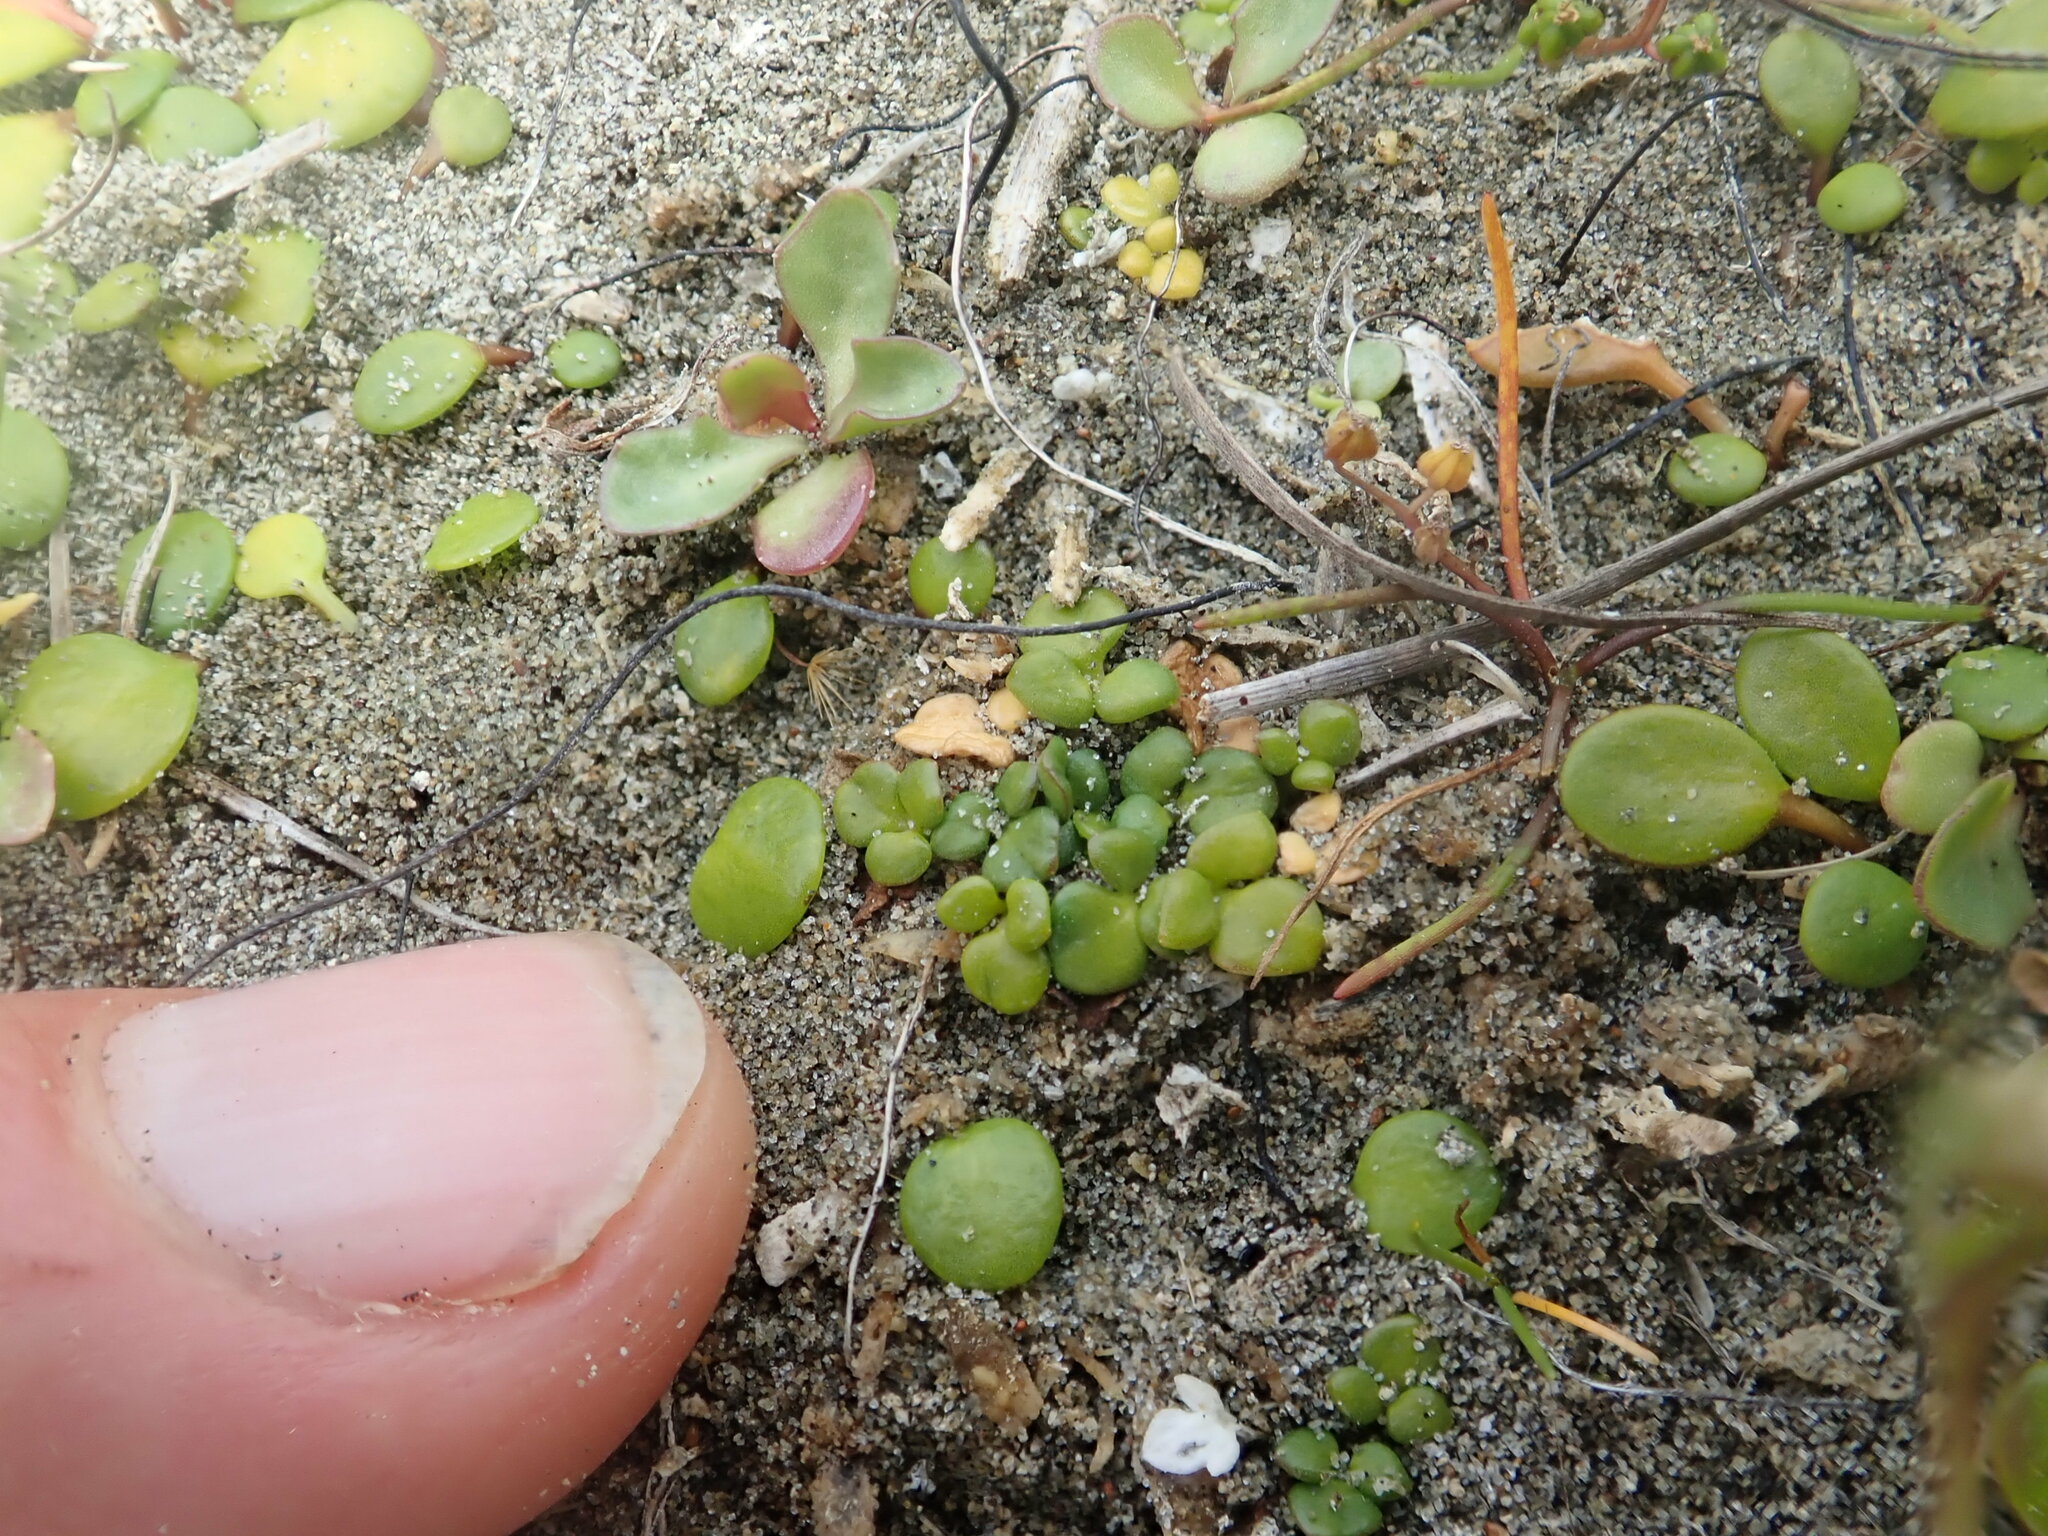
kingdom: Plantae
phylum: Tracheophyta
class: Magnoliopsida
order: Ranunculales
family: Ranunculaceae
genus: Ranunculus
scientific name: Ranunculus acaulis
